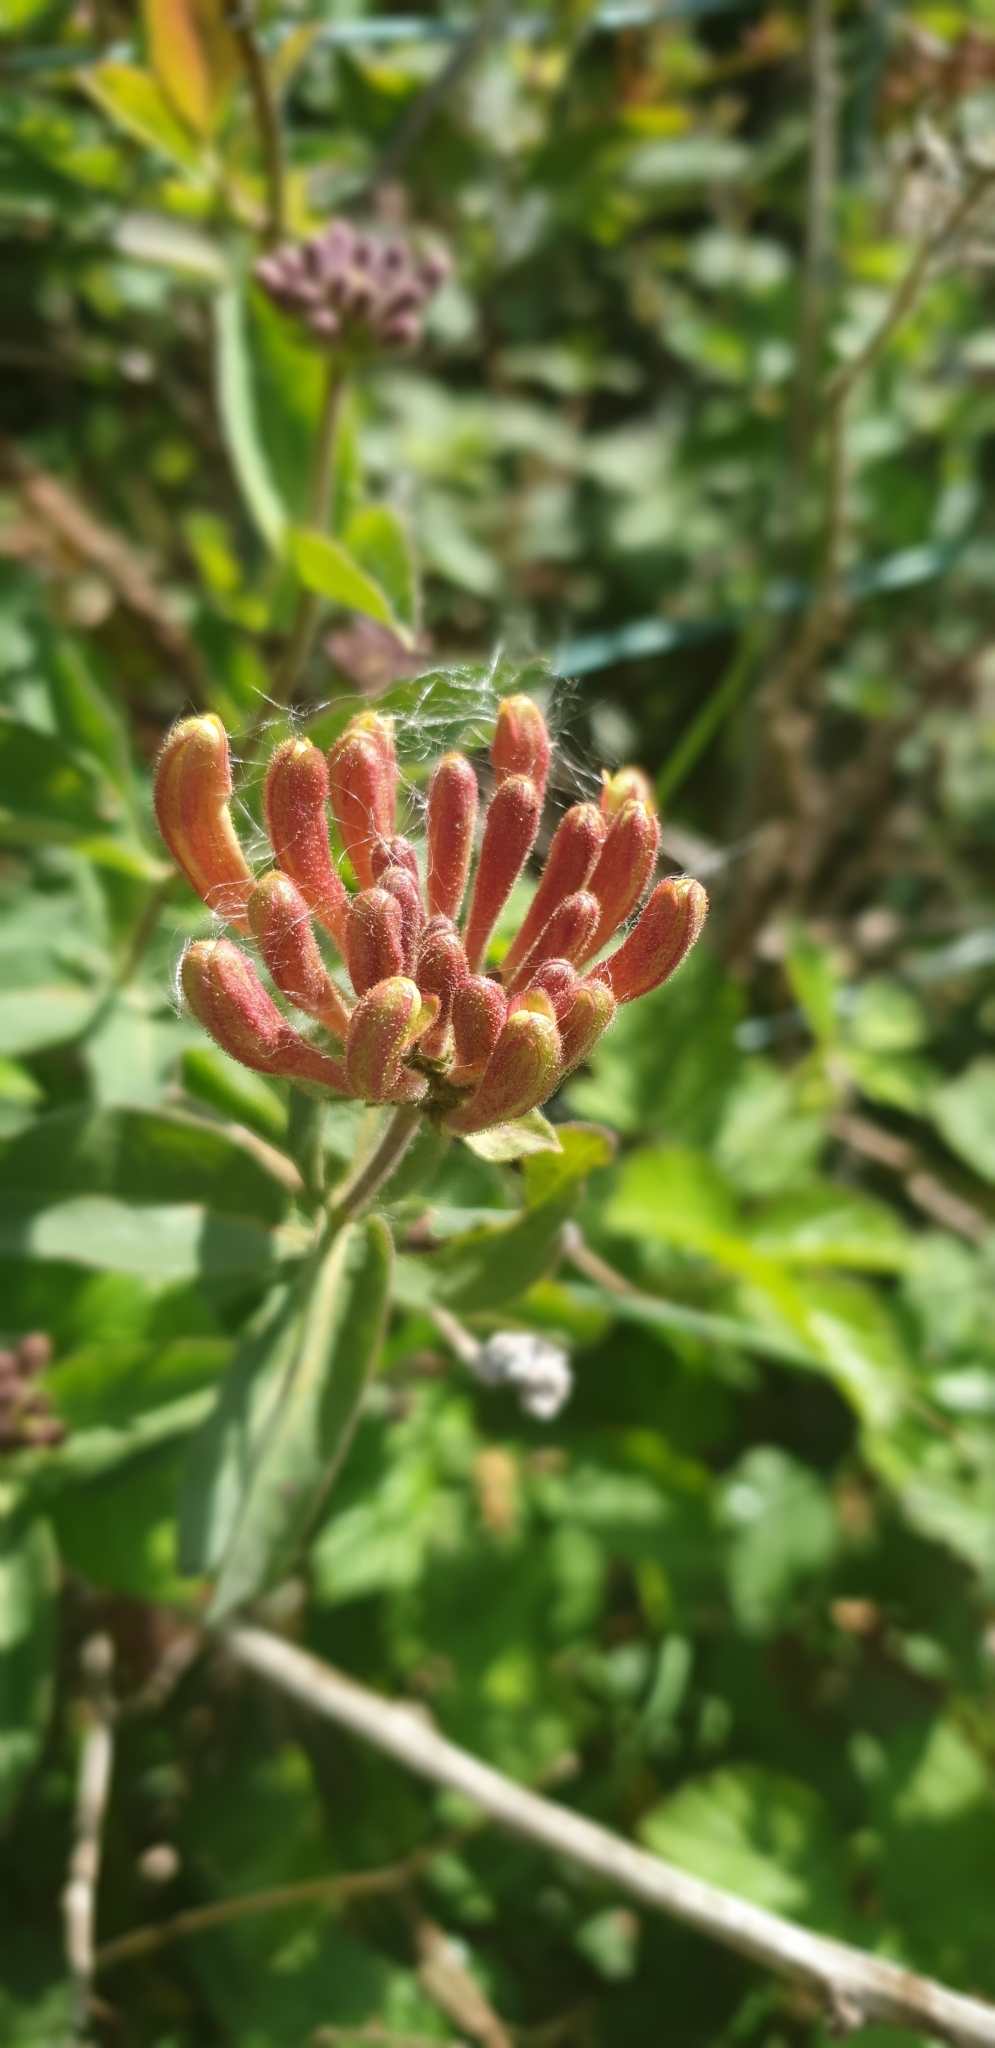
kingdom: Plantae
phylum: Tracheophyta
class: Magnoliopsida
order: Dipsacales
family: Caprifoliaceae
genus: Lonicera
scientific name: Lonicera periclymenum
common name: European honeysuckle
